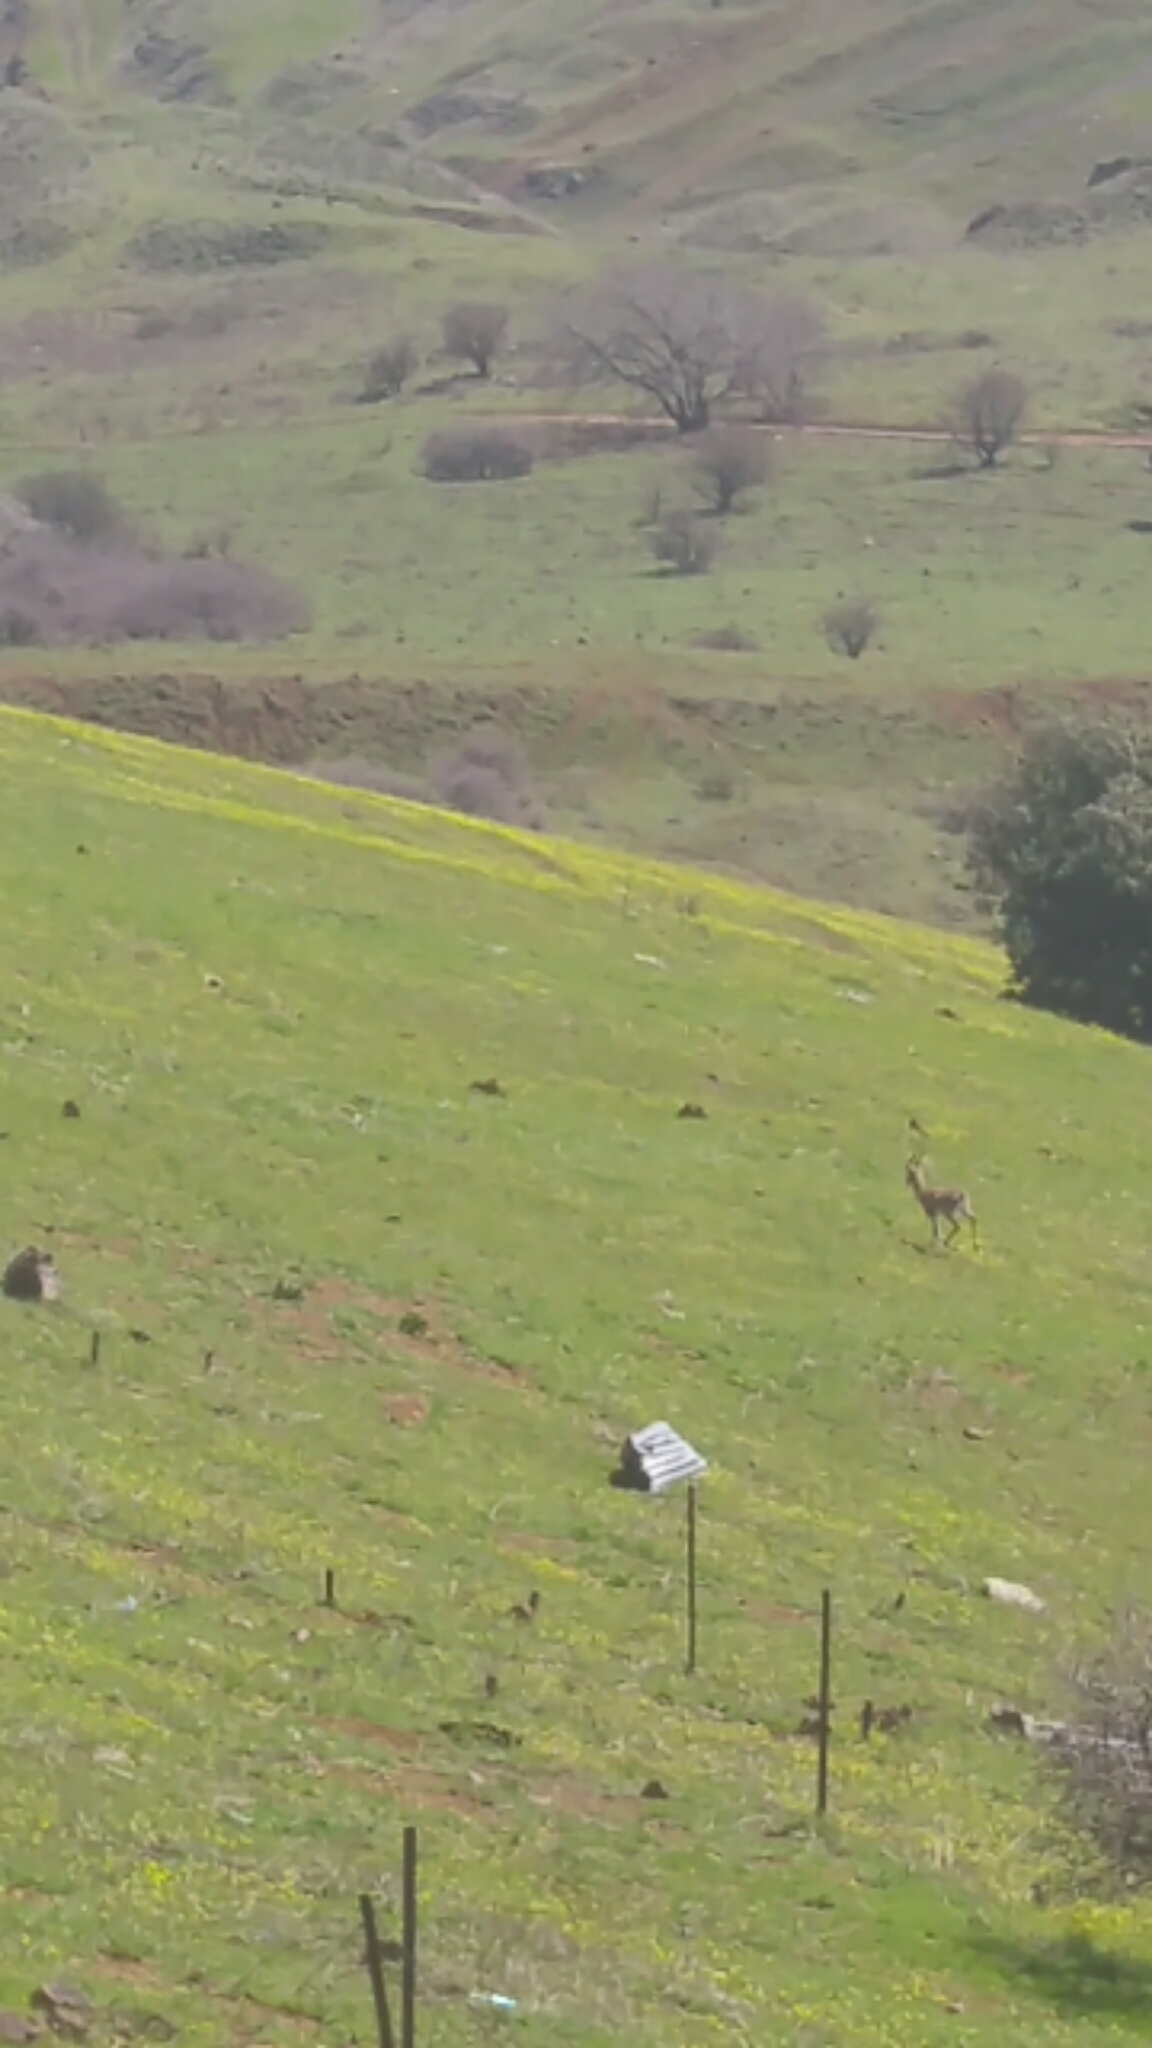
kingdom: Animalia
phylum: Chordata
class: Mammalia
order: Artiodactyla
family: Bovidae
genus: Gazella
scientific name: Gazella gazella
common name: Mountain gazelle
